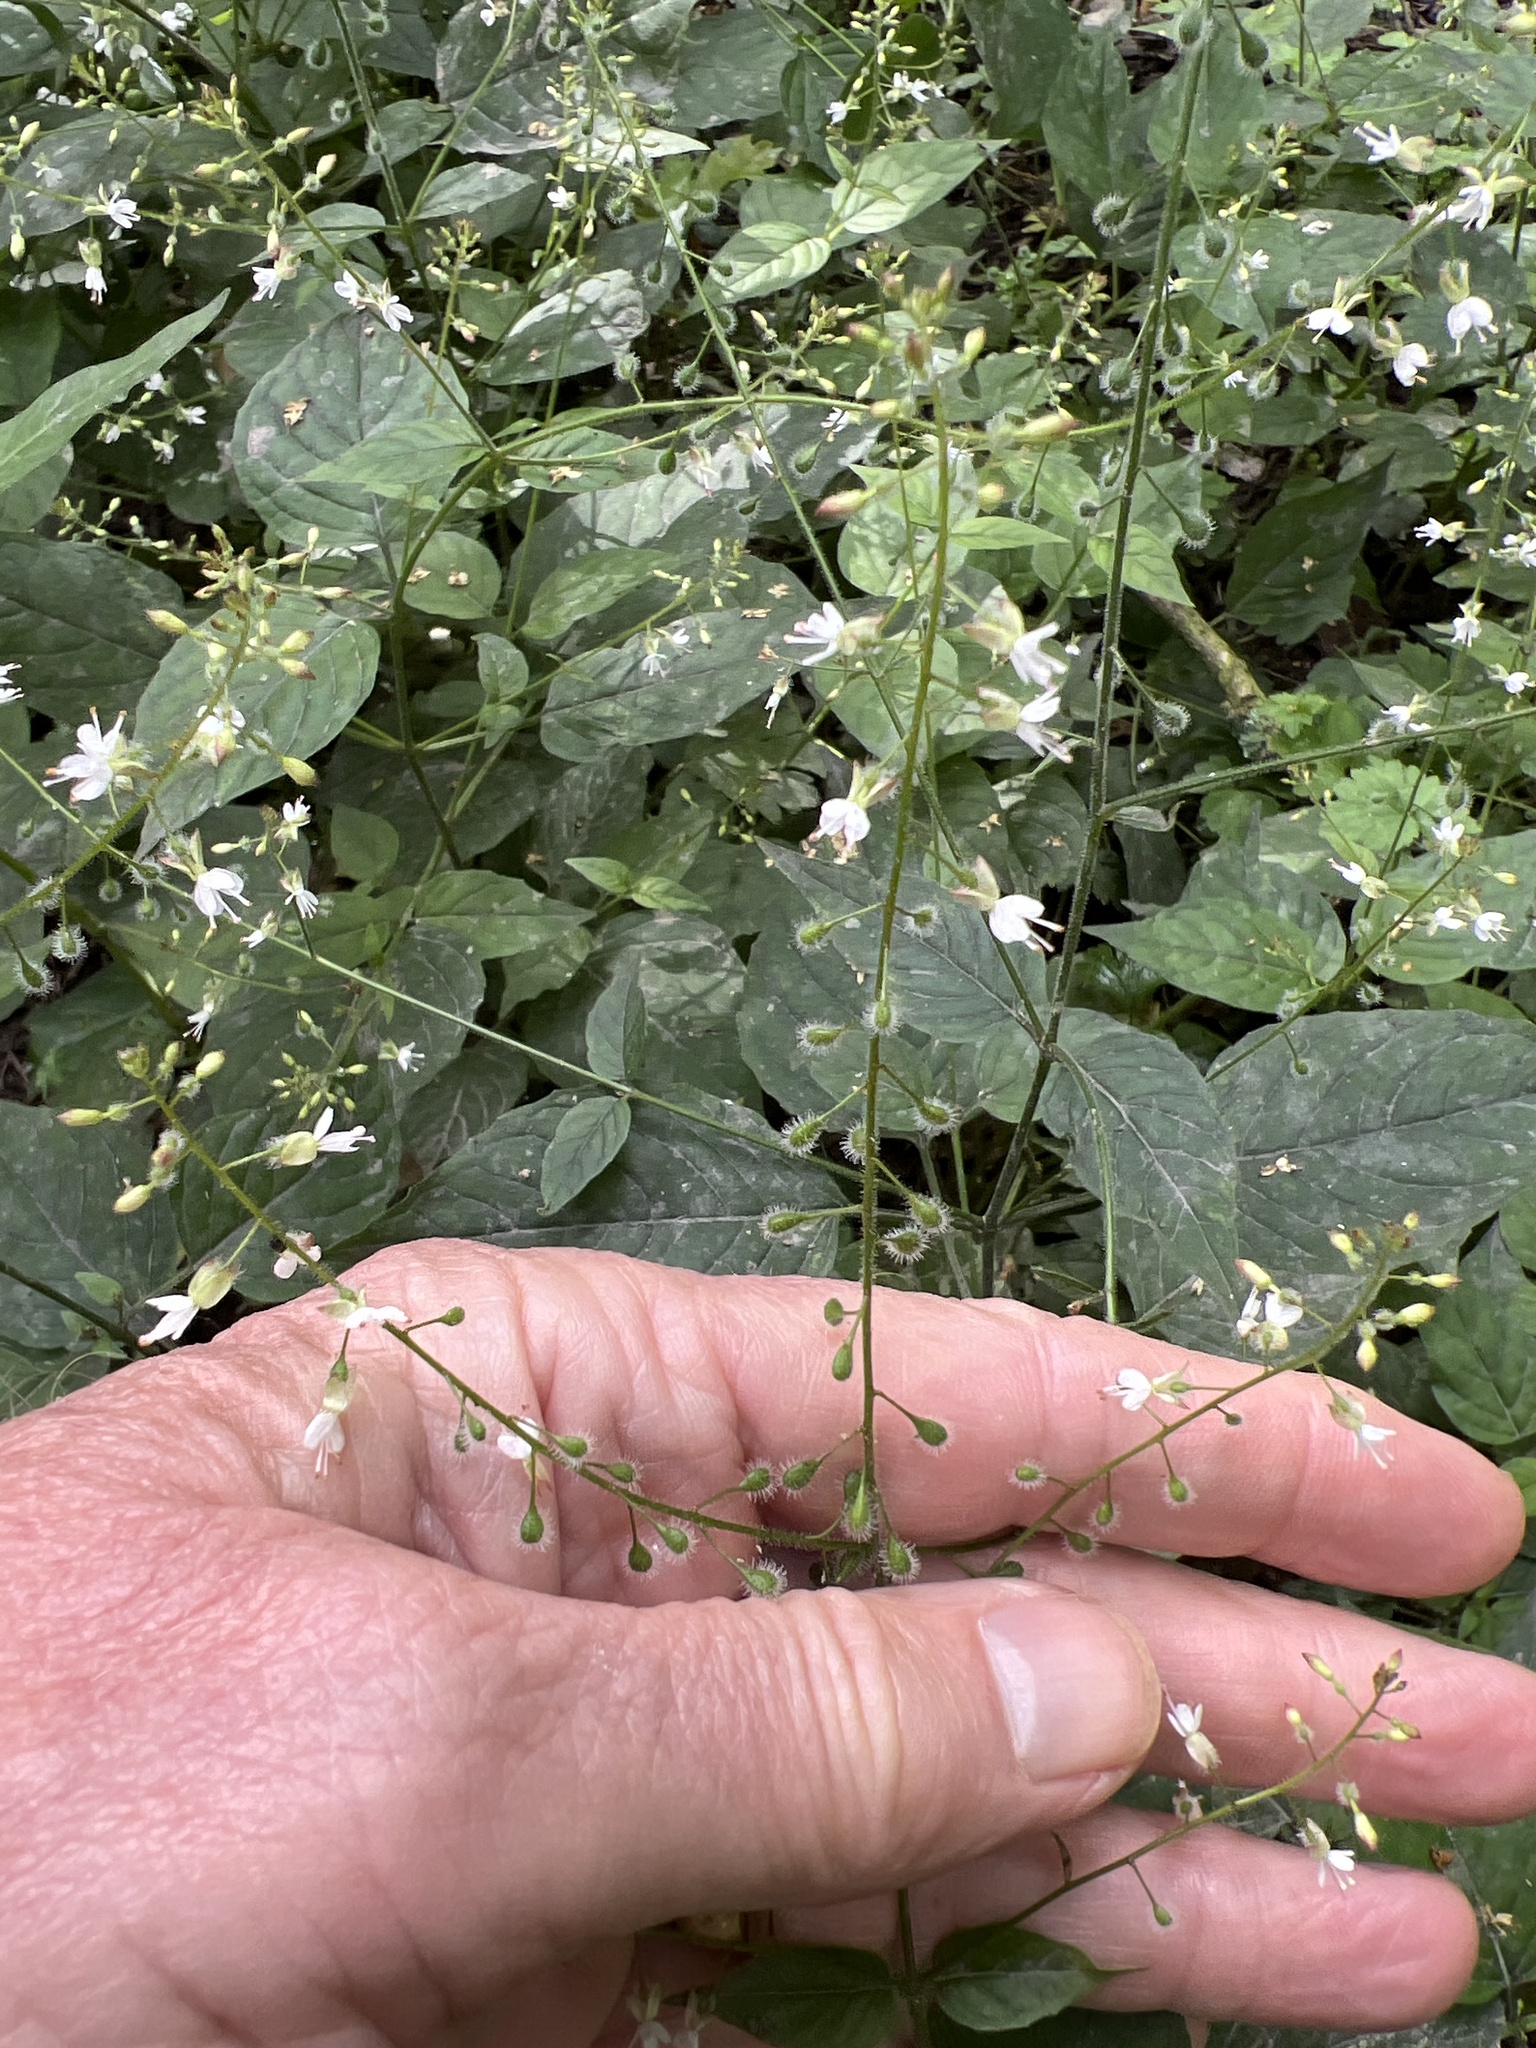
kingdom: Plantae
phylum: Tracheophyta
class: Magnoliopsida
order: Myrtales
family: Onagraceae
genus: Circaea
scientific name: Circaea lutetiana
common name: Enchanter's-nightshade
